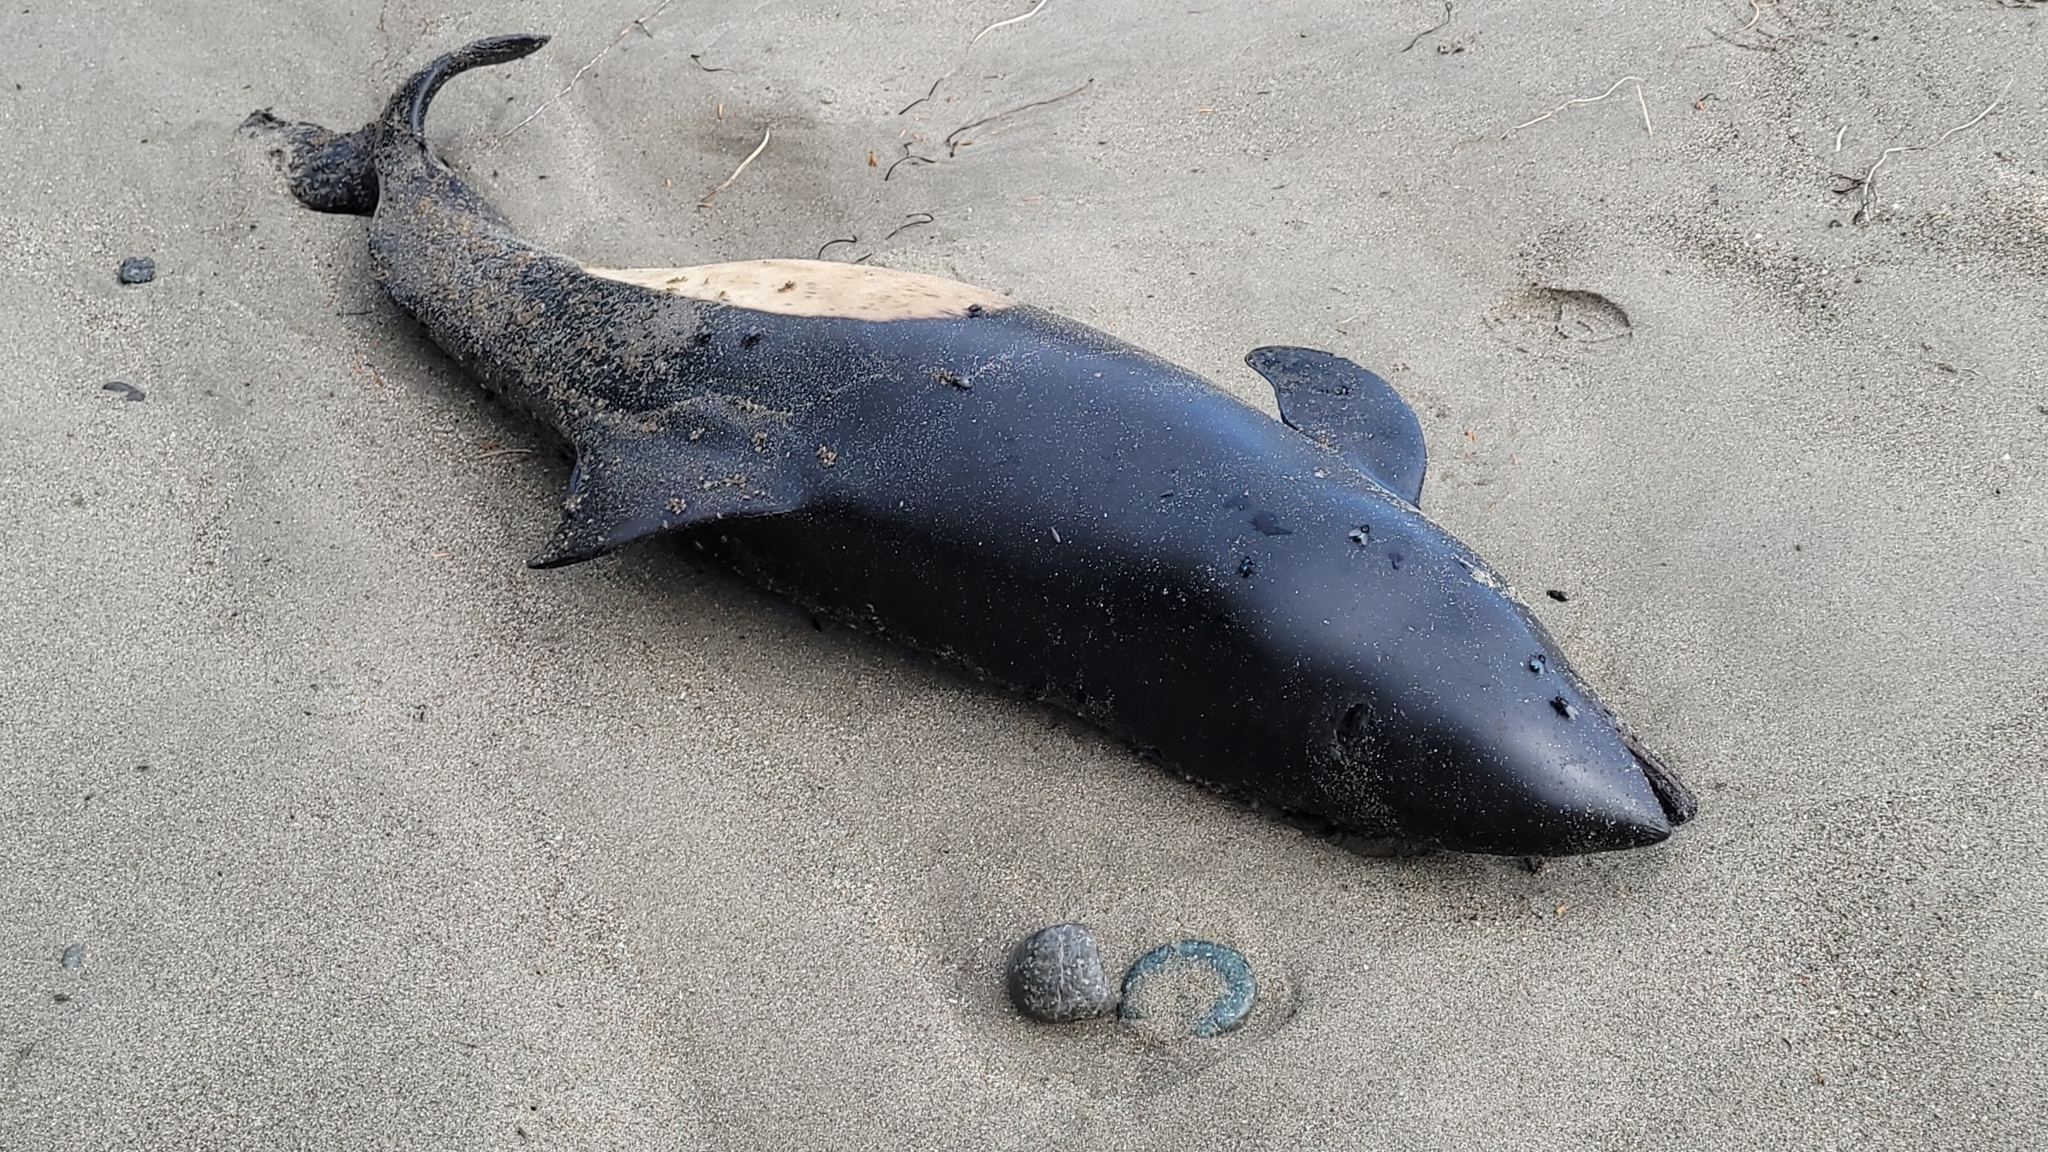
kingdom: Animalia
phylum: Chordata
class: Mammalia
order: Cetacea
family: Phocoenidae
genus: Phocoenoides
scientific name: Phocoenoides dalli
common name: Dall's porpoise
